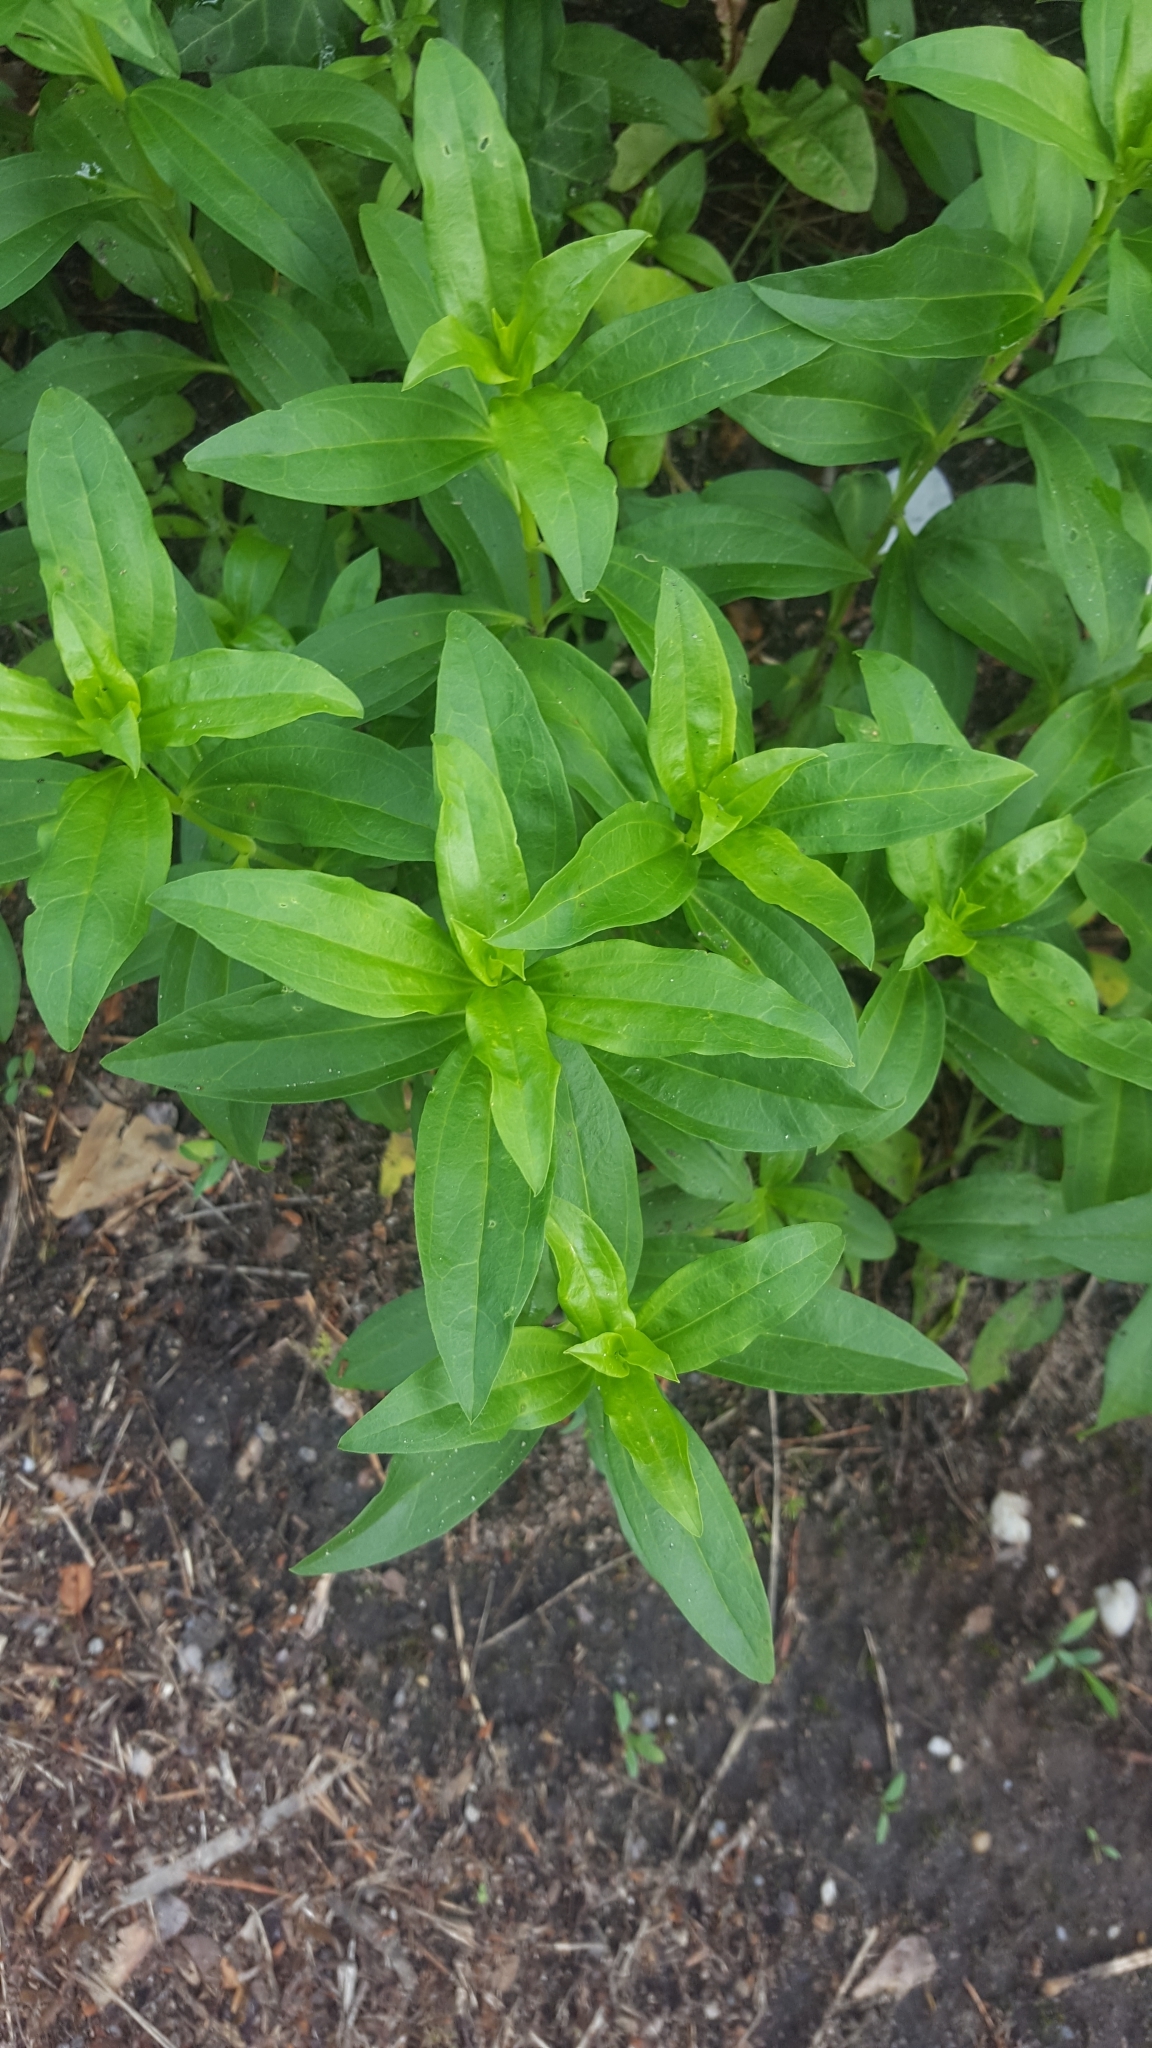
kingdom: Plantae
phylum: Tracheophyta
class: Magnoliopsida
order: Caryophyllales
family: Caryophyllaceae
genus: Saponaria
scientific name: Saponaria officinalis
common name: Soapwort
